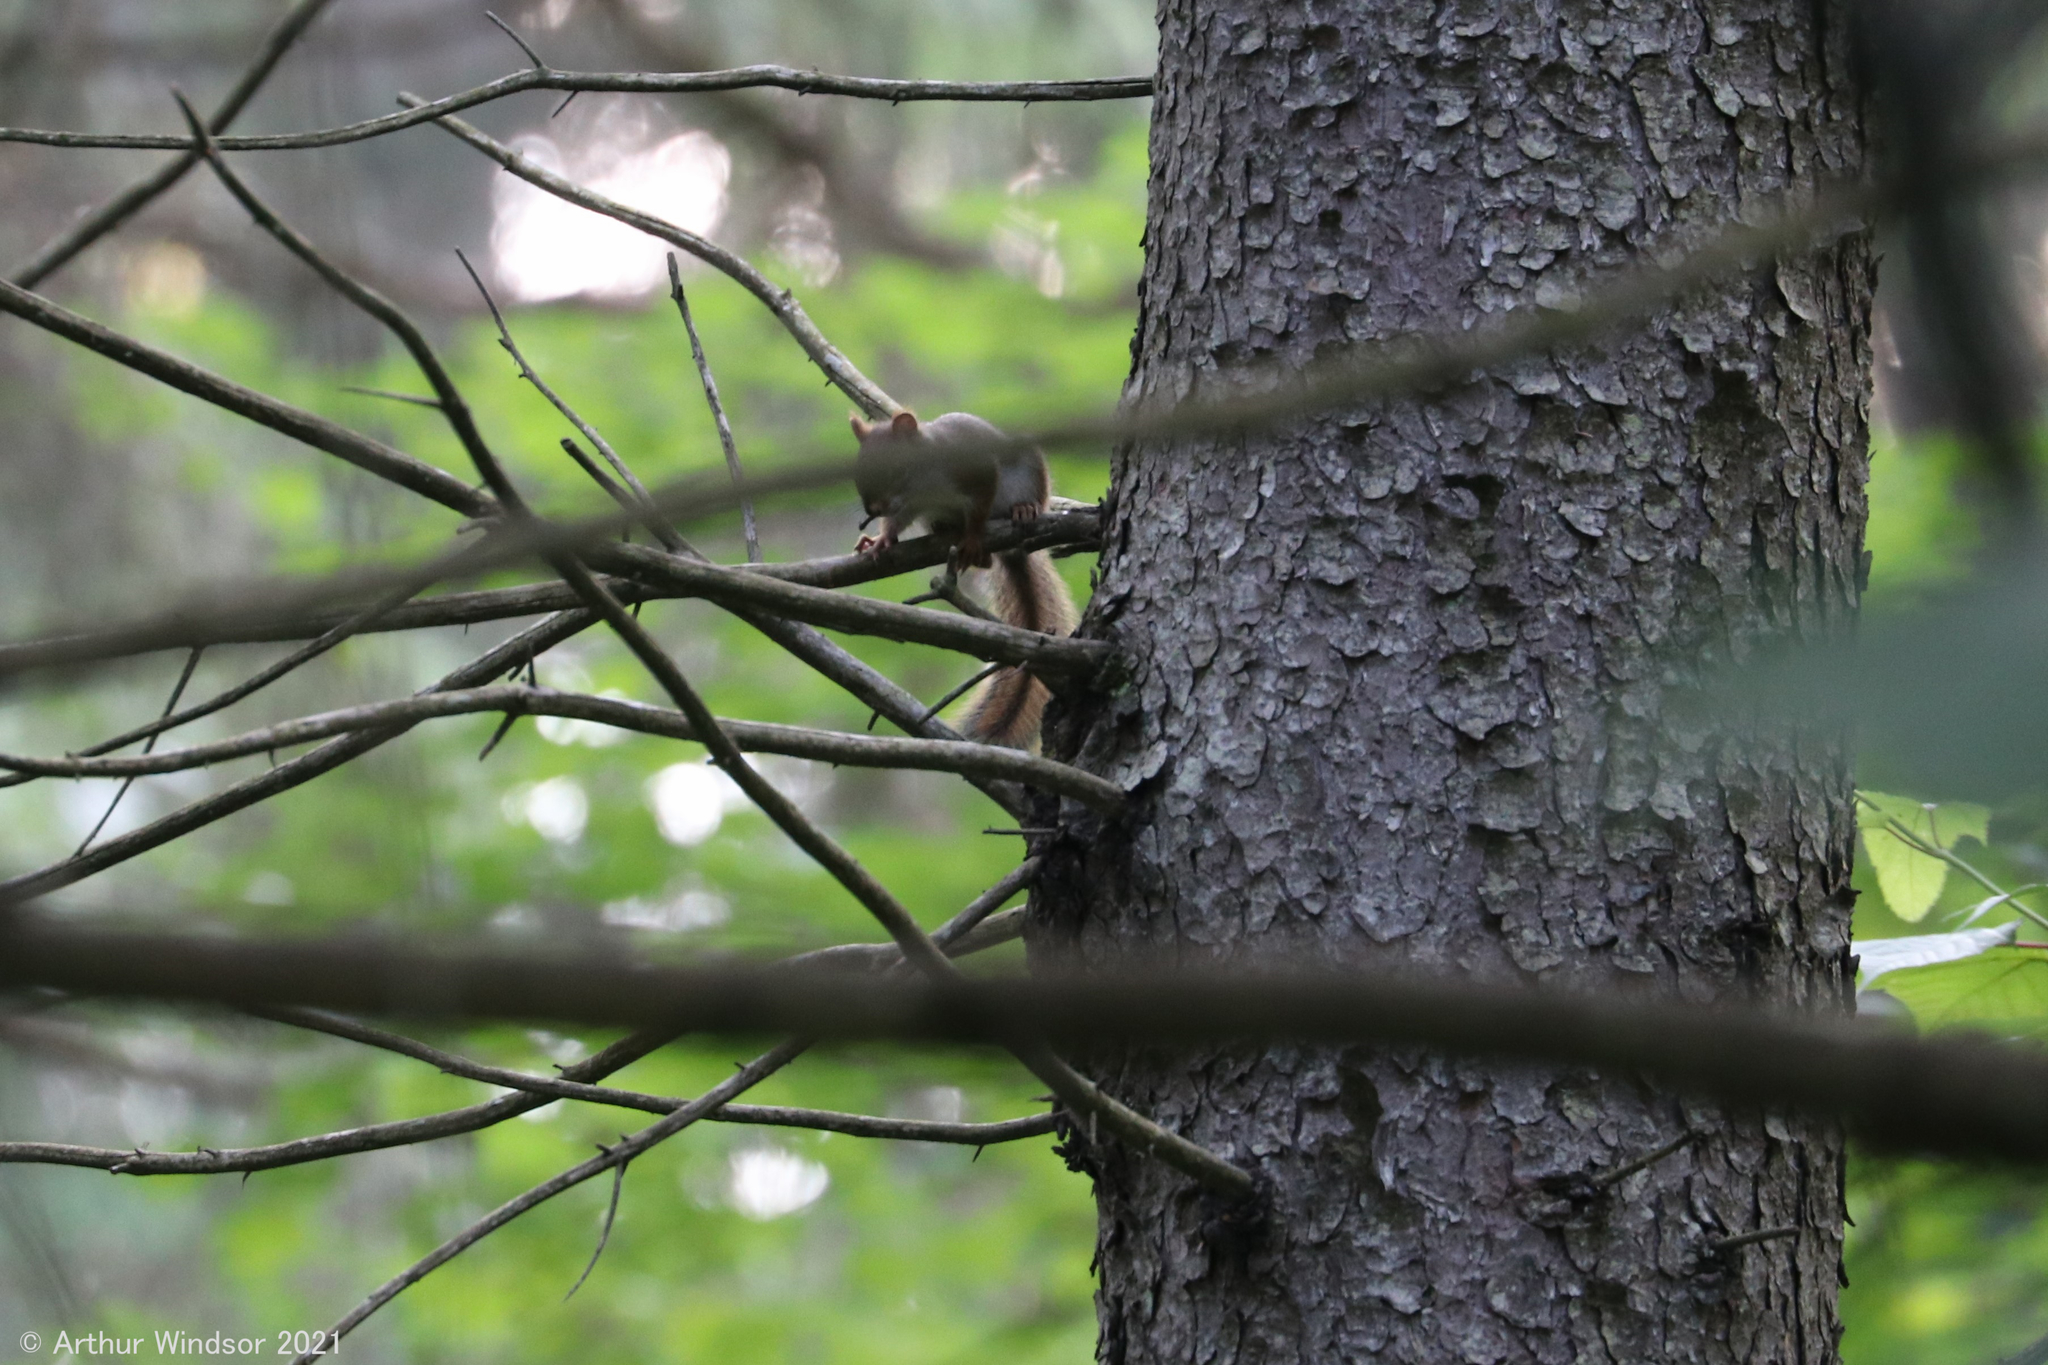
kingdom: Animalia
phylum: Chordata
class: Mammalia
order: Rodentia
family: Sciuridae
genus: Tamiasciurus
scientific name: Tamiasciurus hudsonicus
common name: Red squirrel
